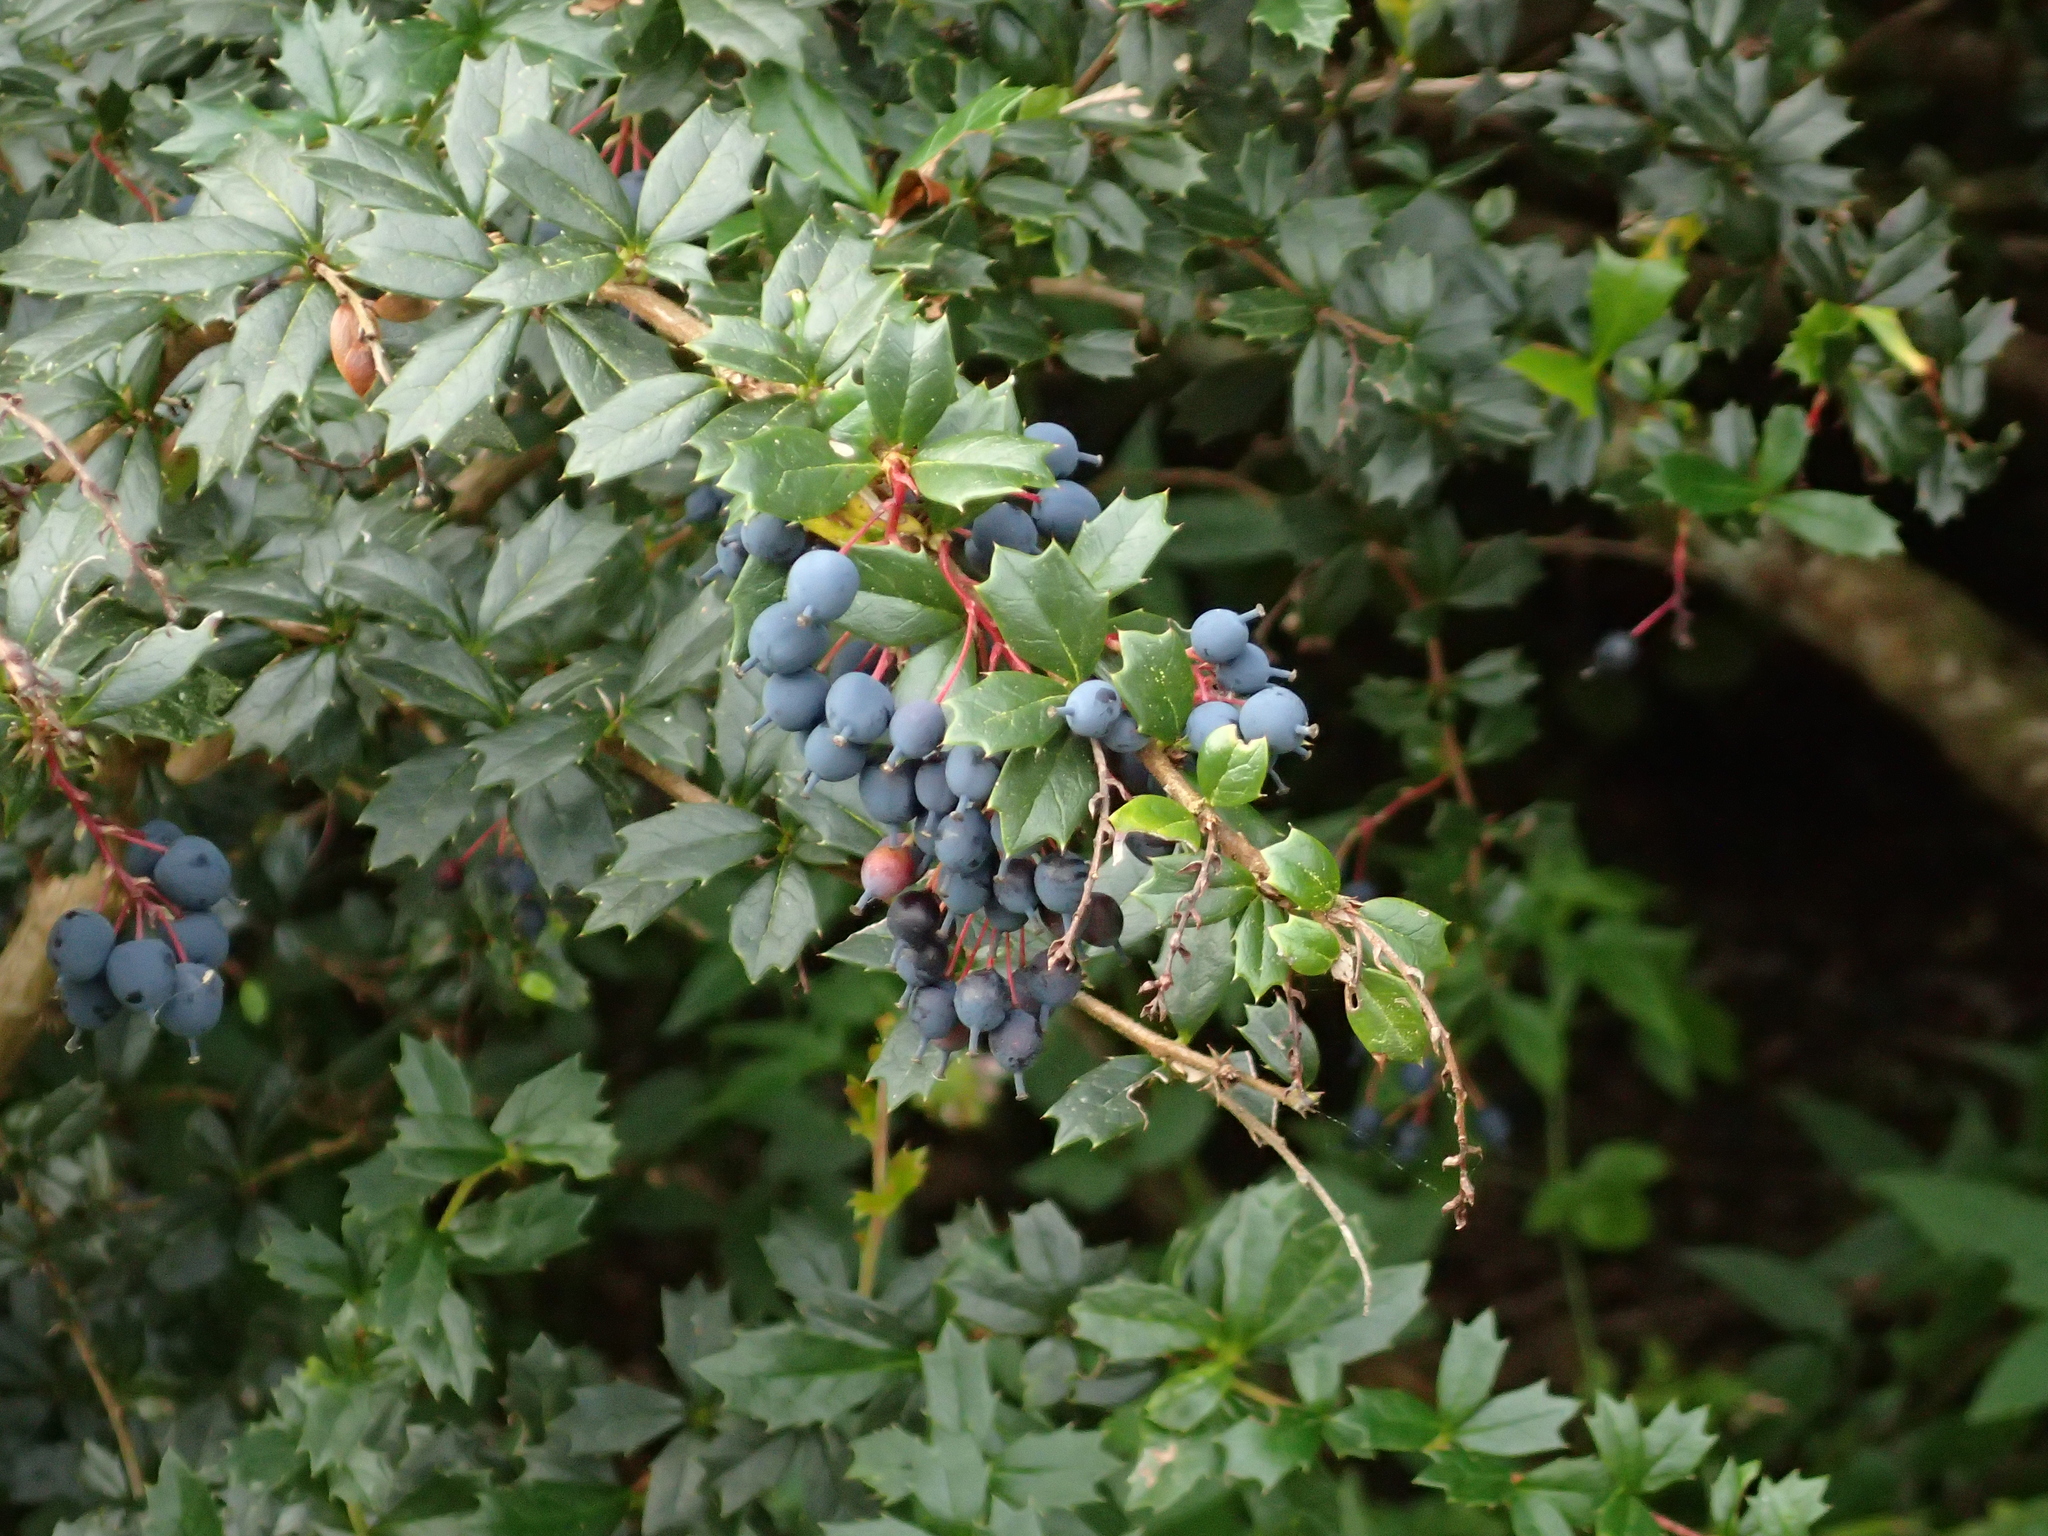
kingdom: Plantae
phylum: Tracheophyta
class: Magnoliopsida
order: Ranunculales
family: Berberidaceae
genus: Berberis
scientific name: Berberis darwinii
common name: Darwin's barberry
